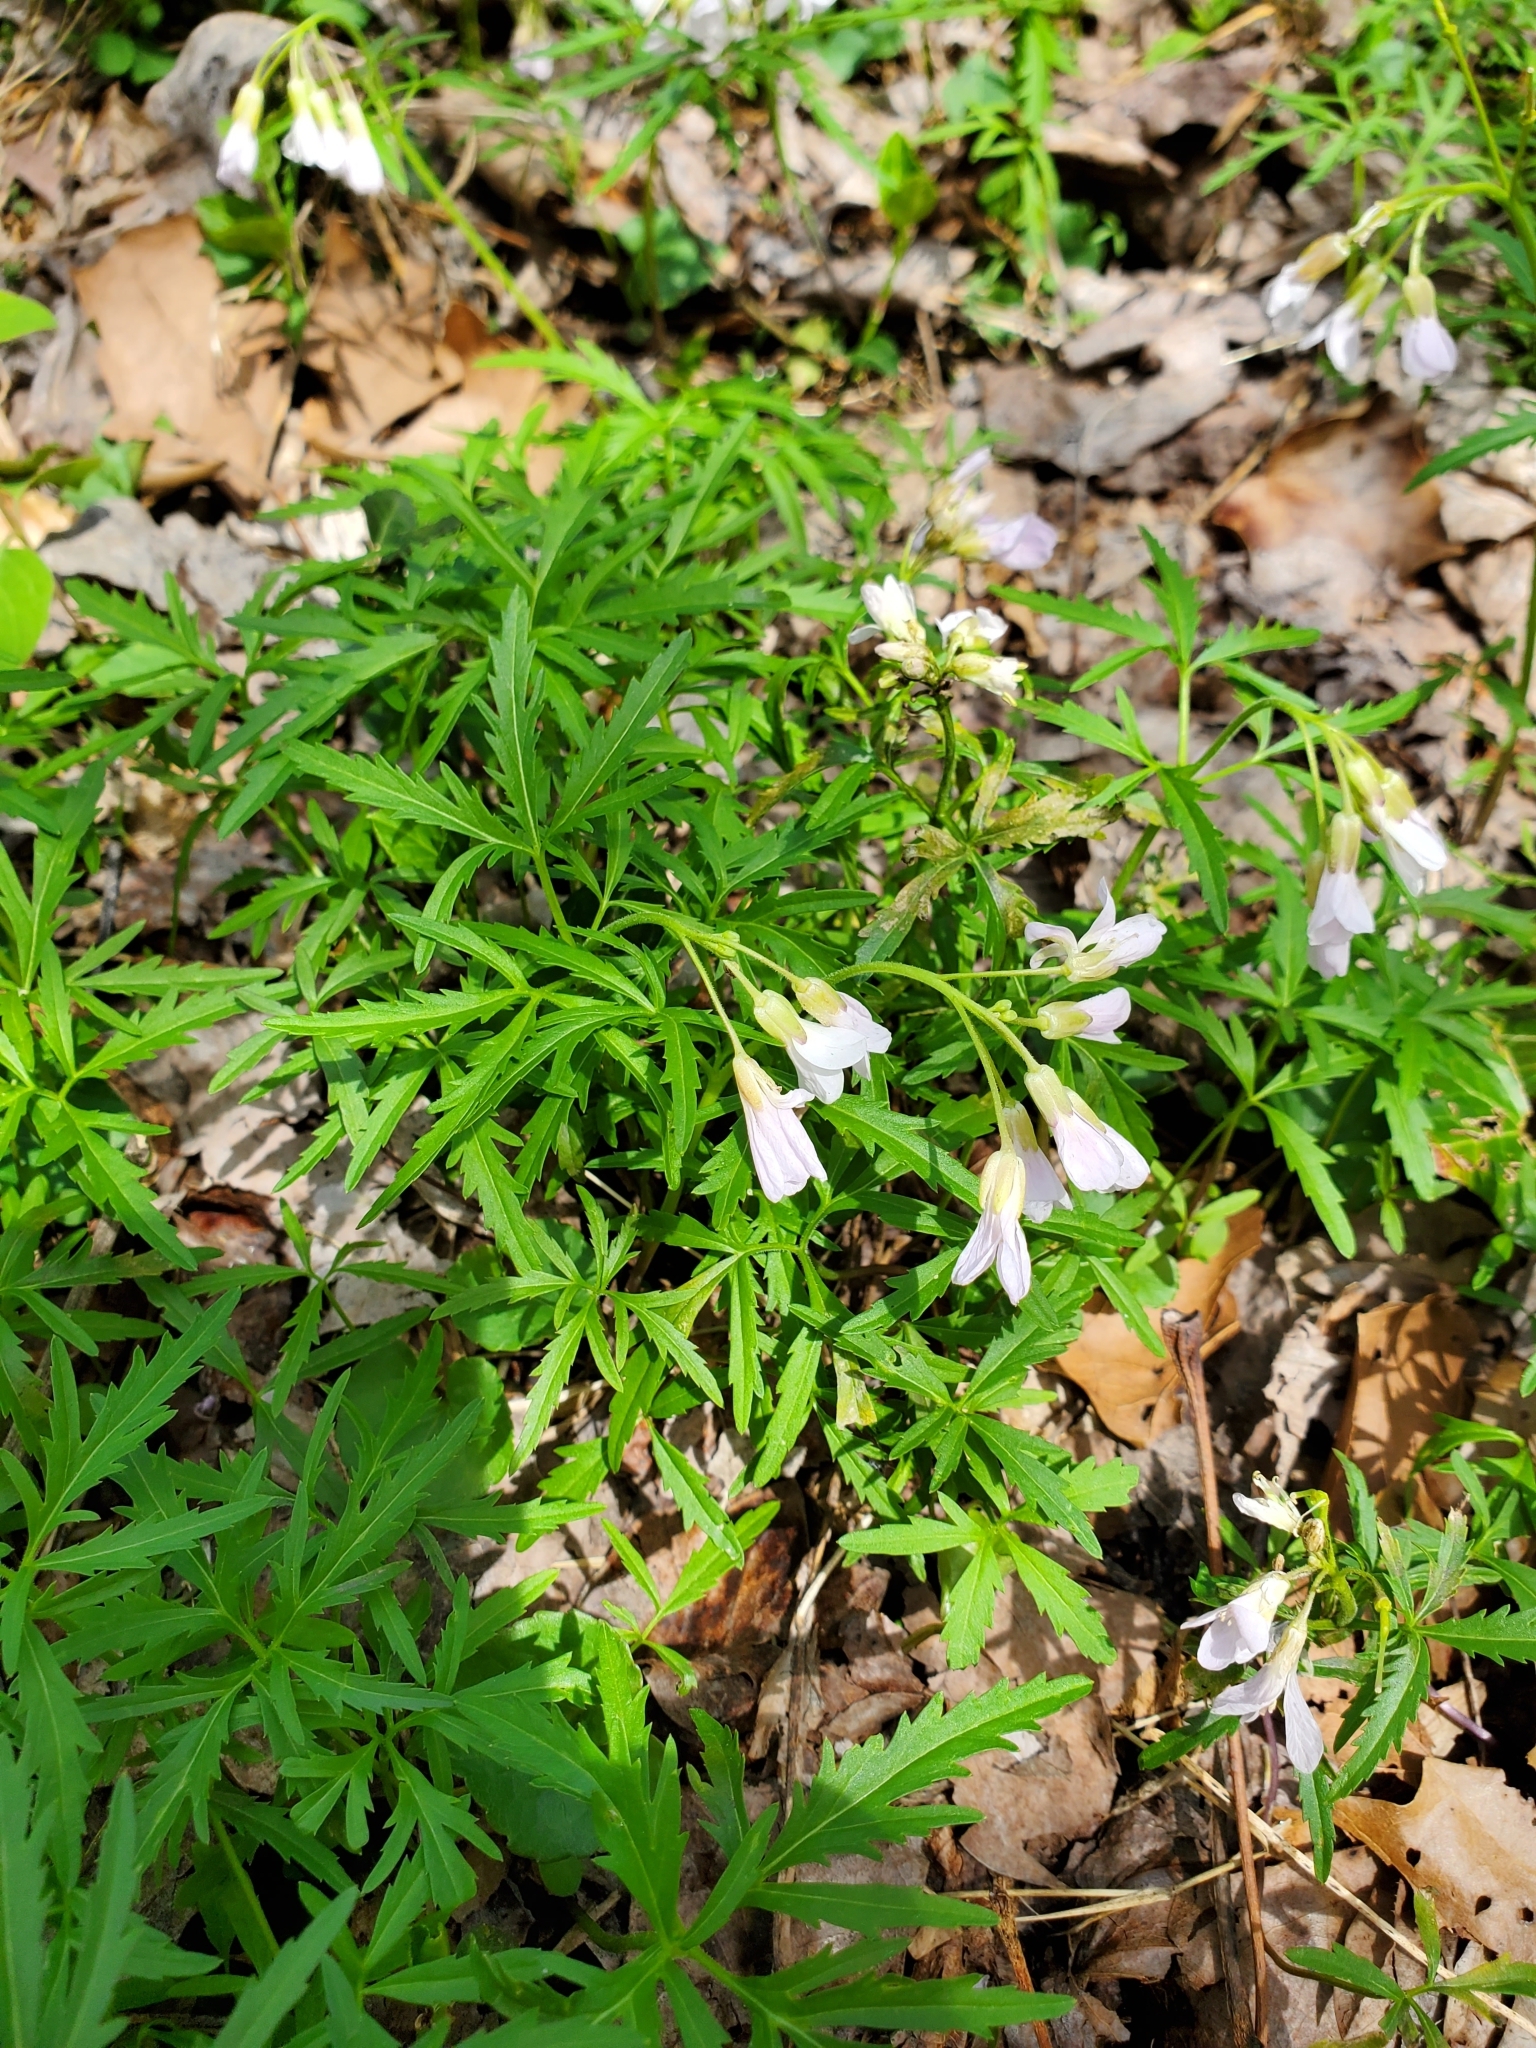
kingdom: Plantae
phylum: Tracheophyta
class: Magnoliopsida
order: Brassicales
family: Brassicaceae
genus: Cardamine
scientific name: Cardamine concatenata
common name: Cut-leaf toothcup
